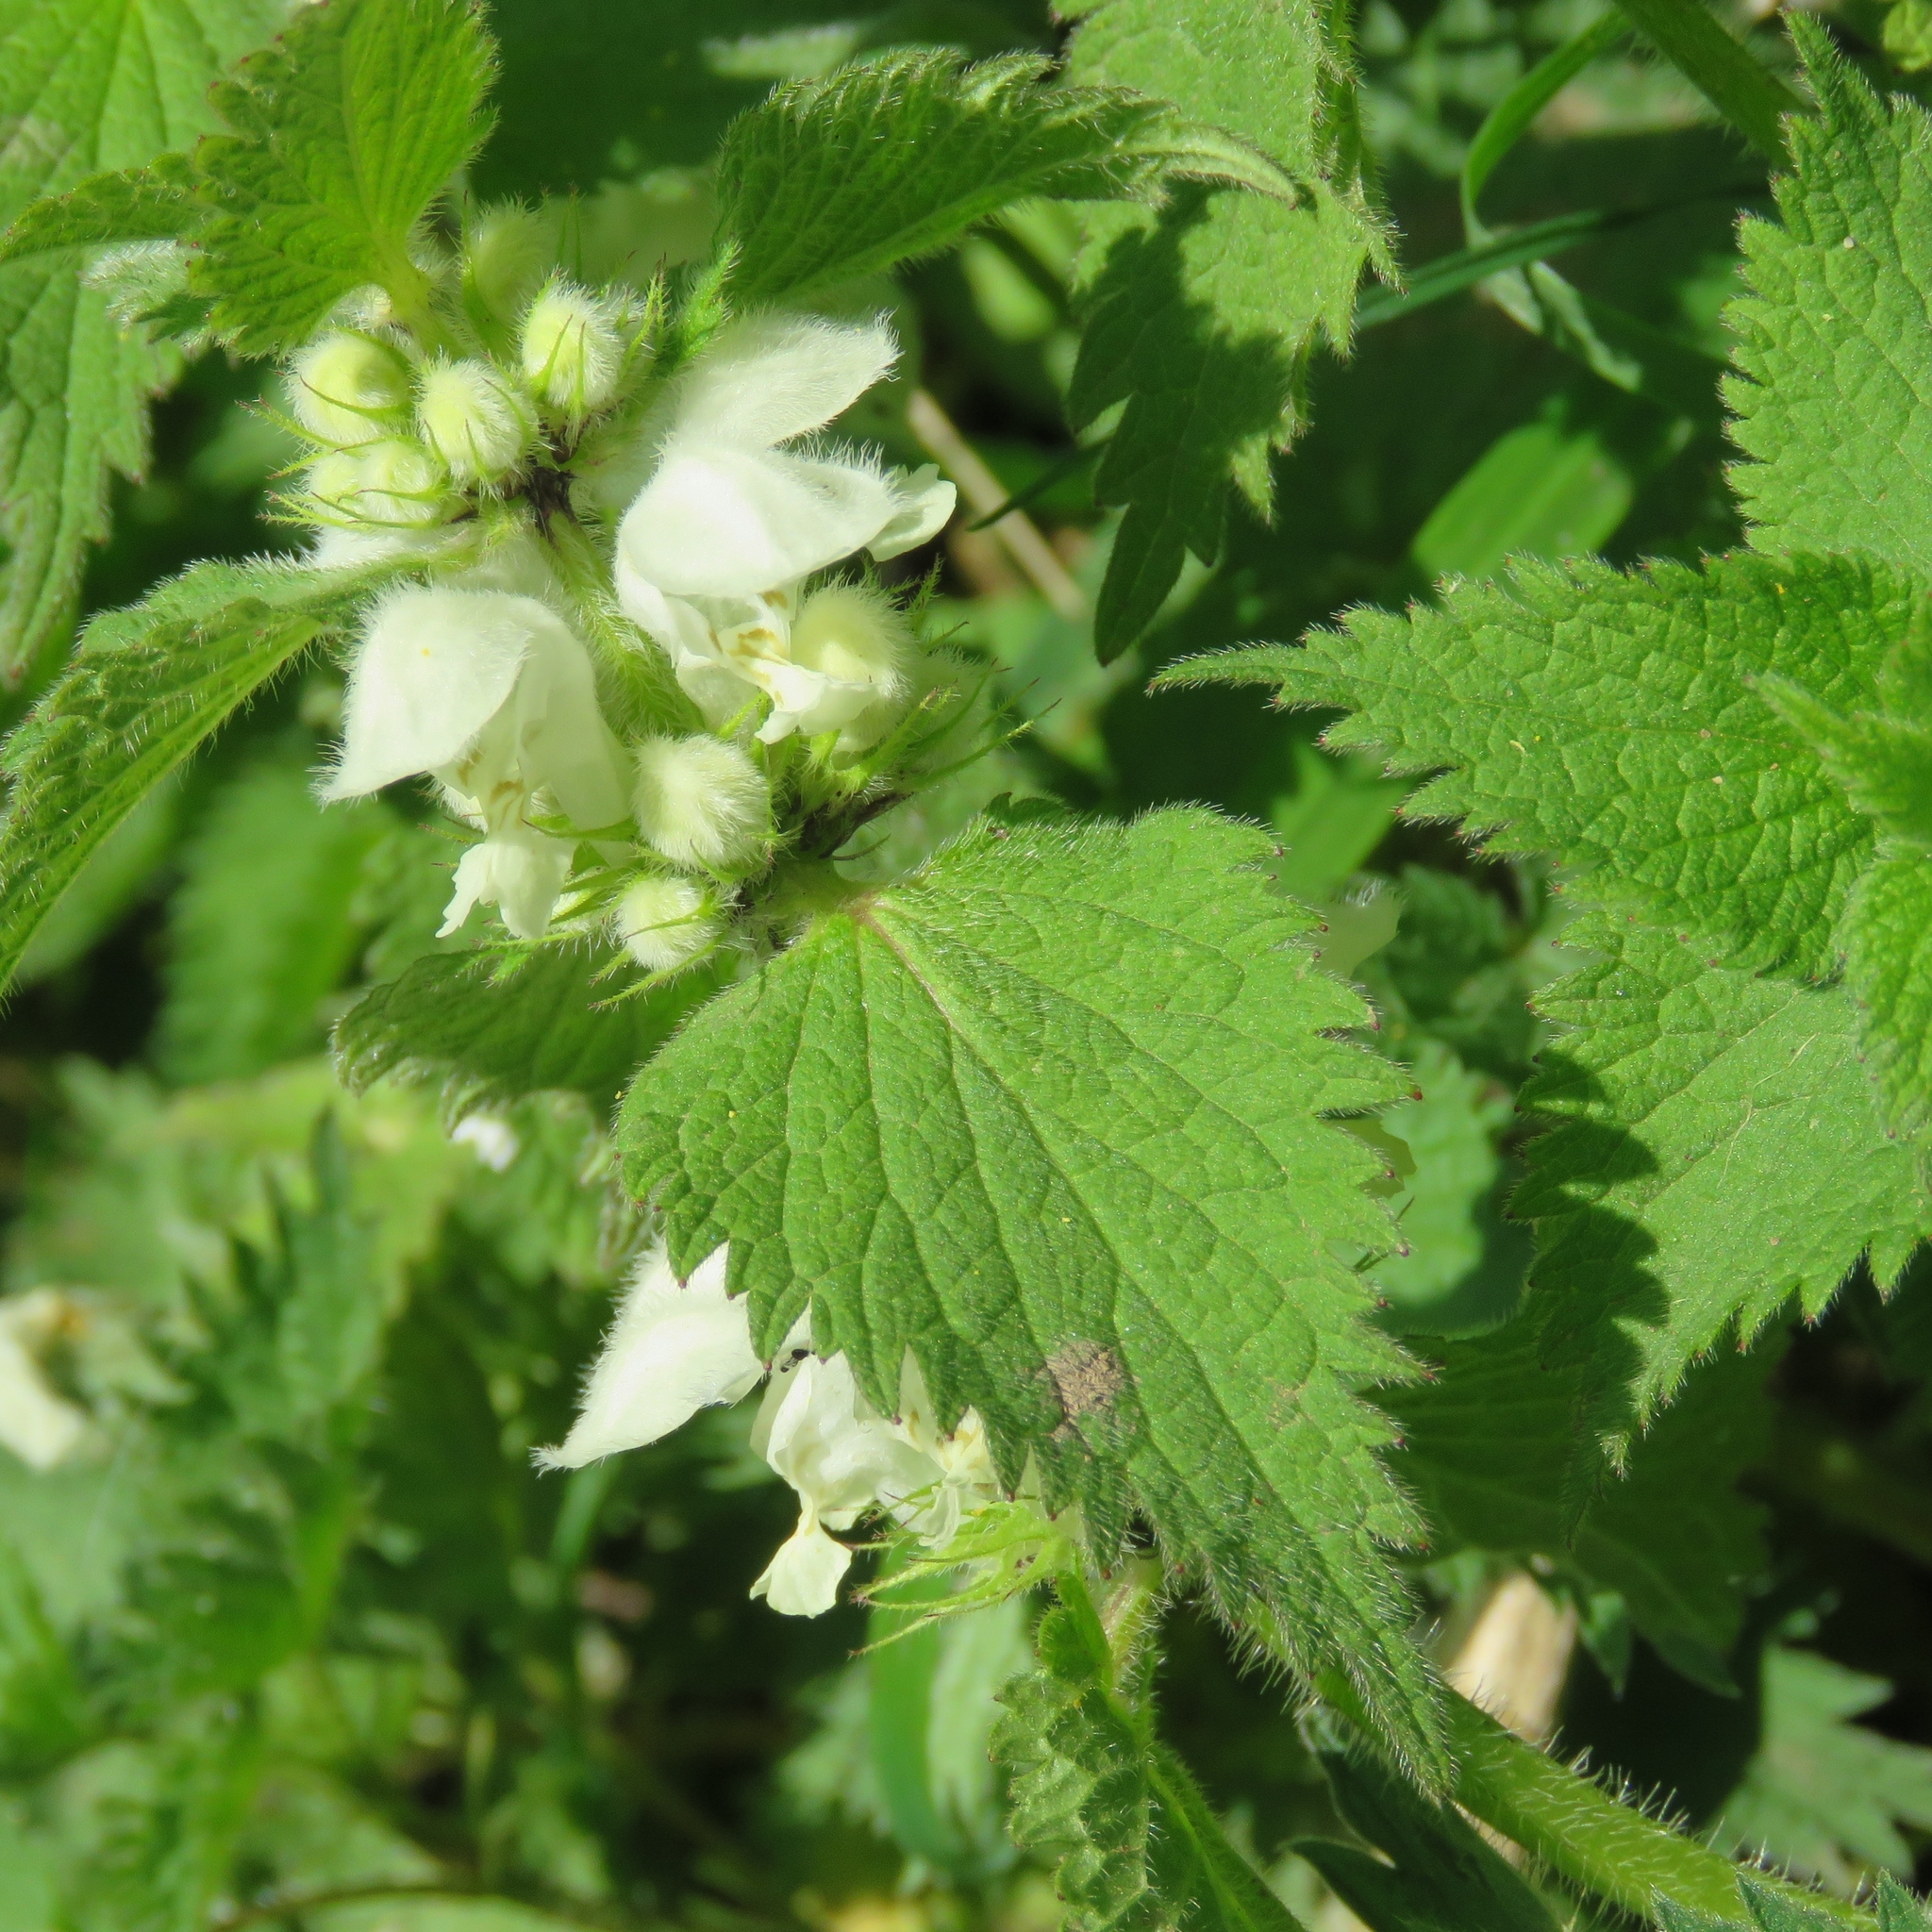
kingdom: Plantae
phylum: Tracheophyta
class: Magnoliopsida
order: Lamiales
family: Lamiaceae
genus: Lamium
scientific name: Lamium album
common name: White dead-nettle
